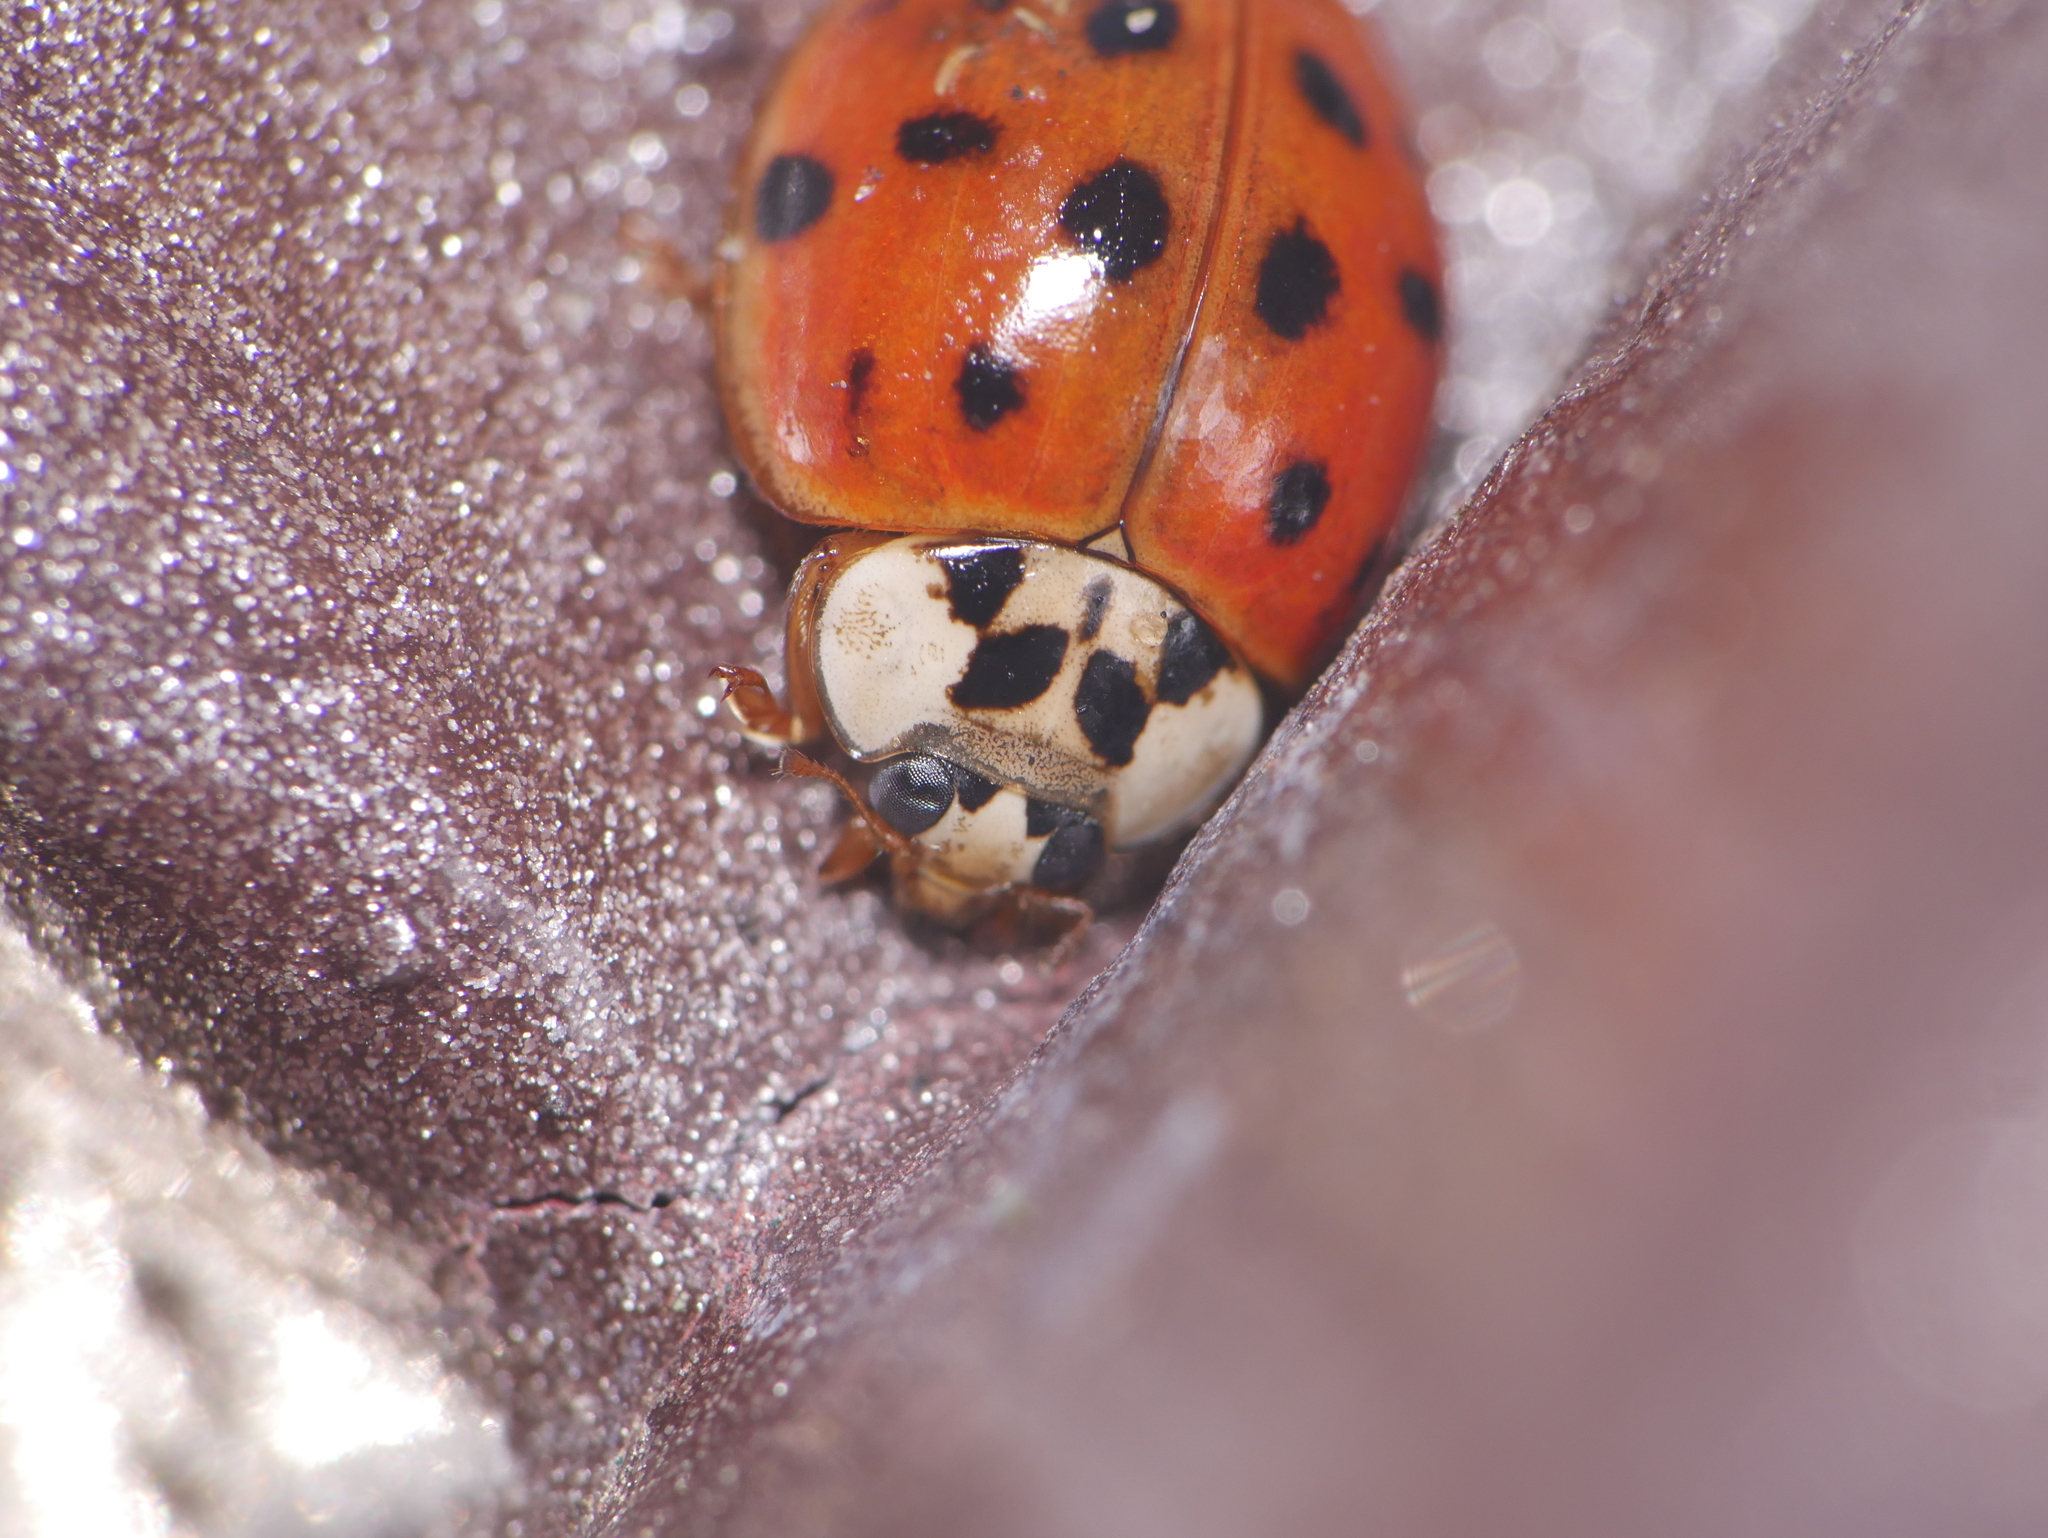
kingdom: Animalia
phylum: Arthropoda
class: Insecta
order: Coleoptera
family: Coccinellidae
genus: Harmonia
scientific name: Harmonia axyridis
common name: Harlequin ladybird
